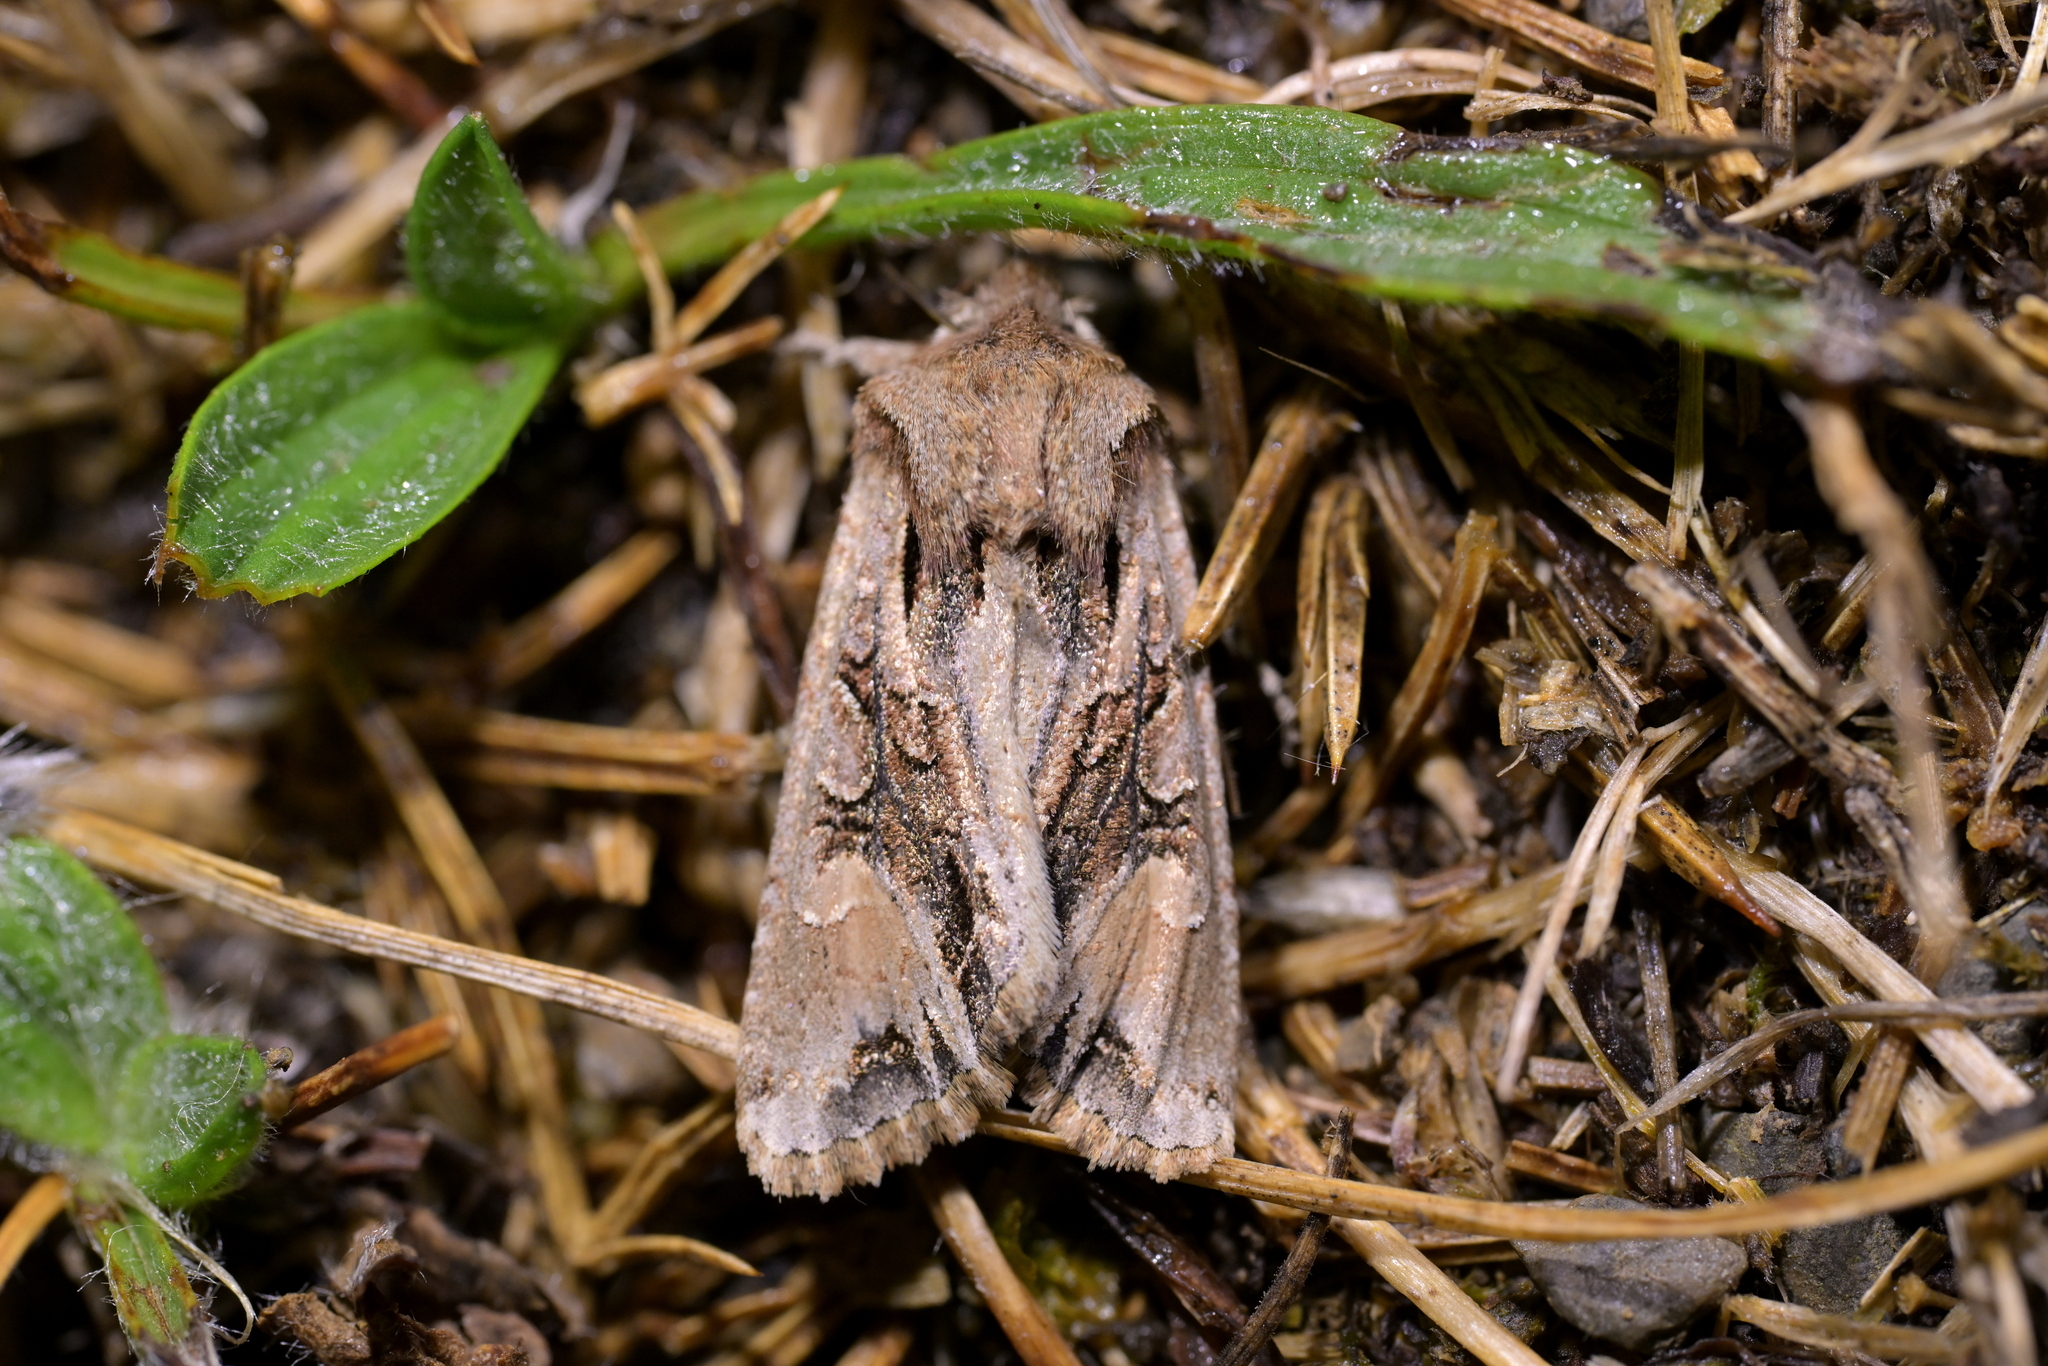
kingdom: Animalia
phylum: Arthropoda
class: Insecta
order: Lepidoptera
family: Noctuidae
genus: Ichneutica
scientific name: Ichneutica
